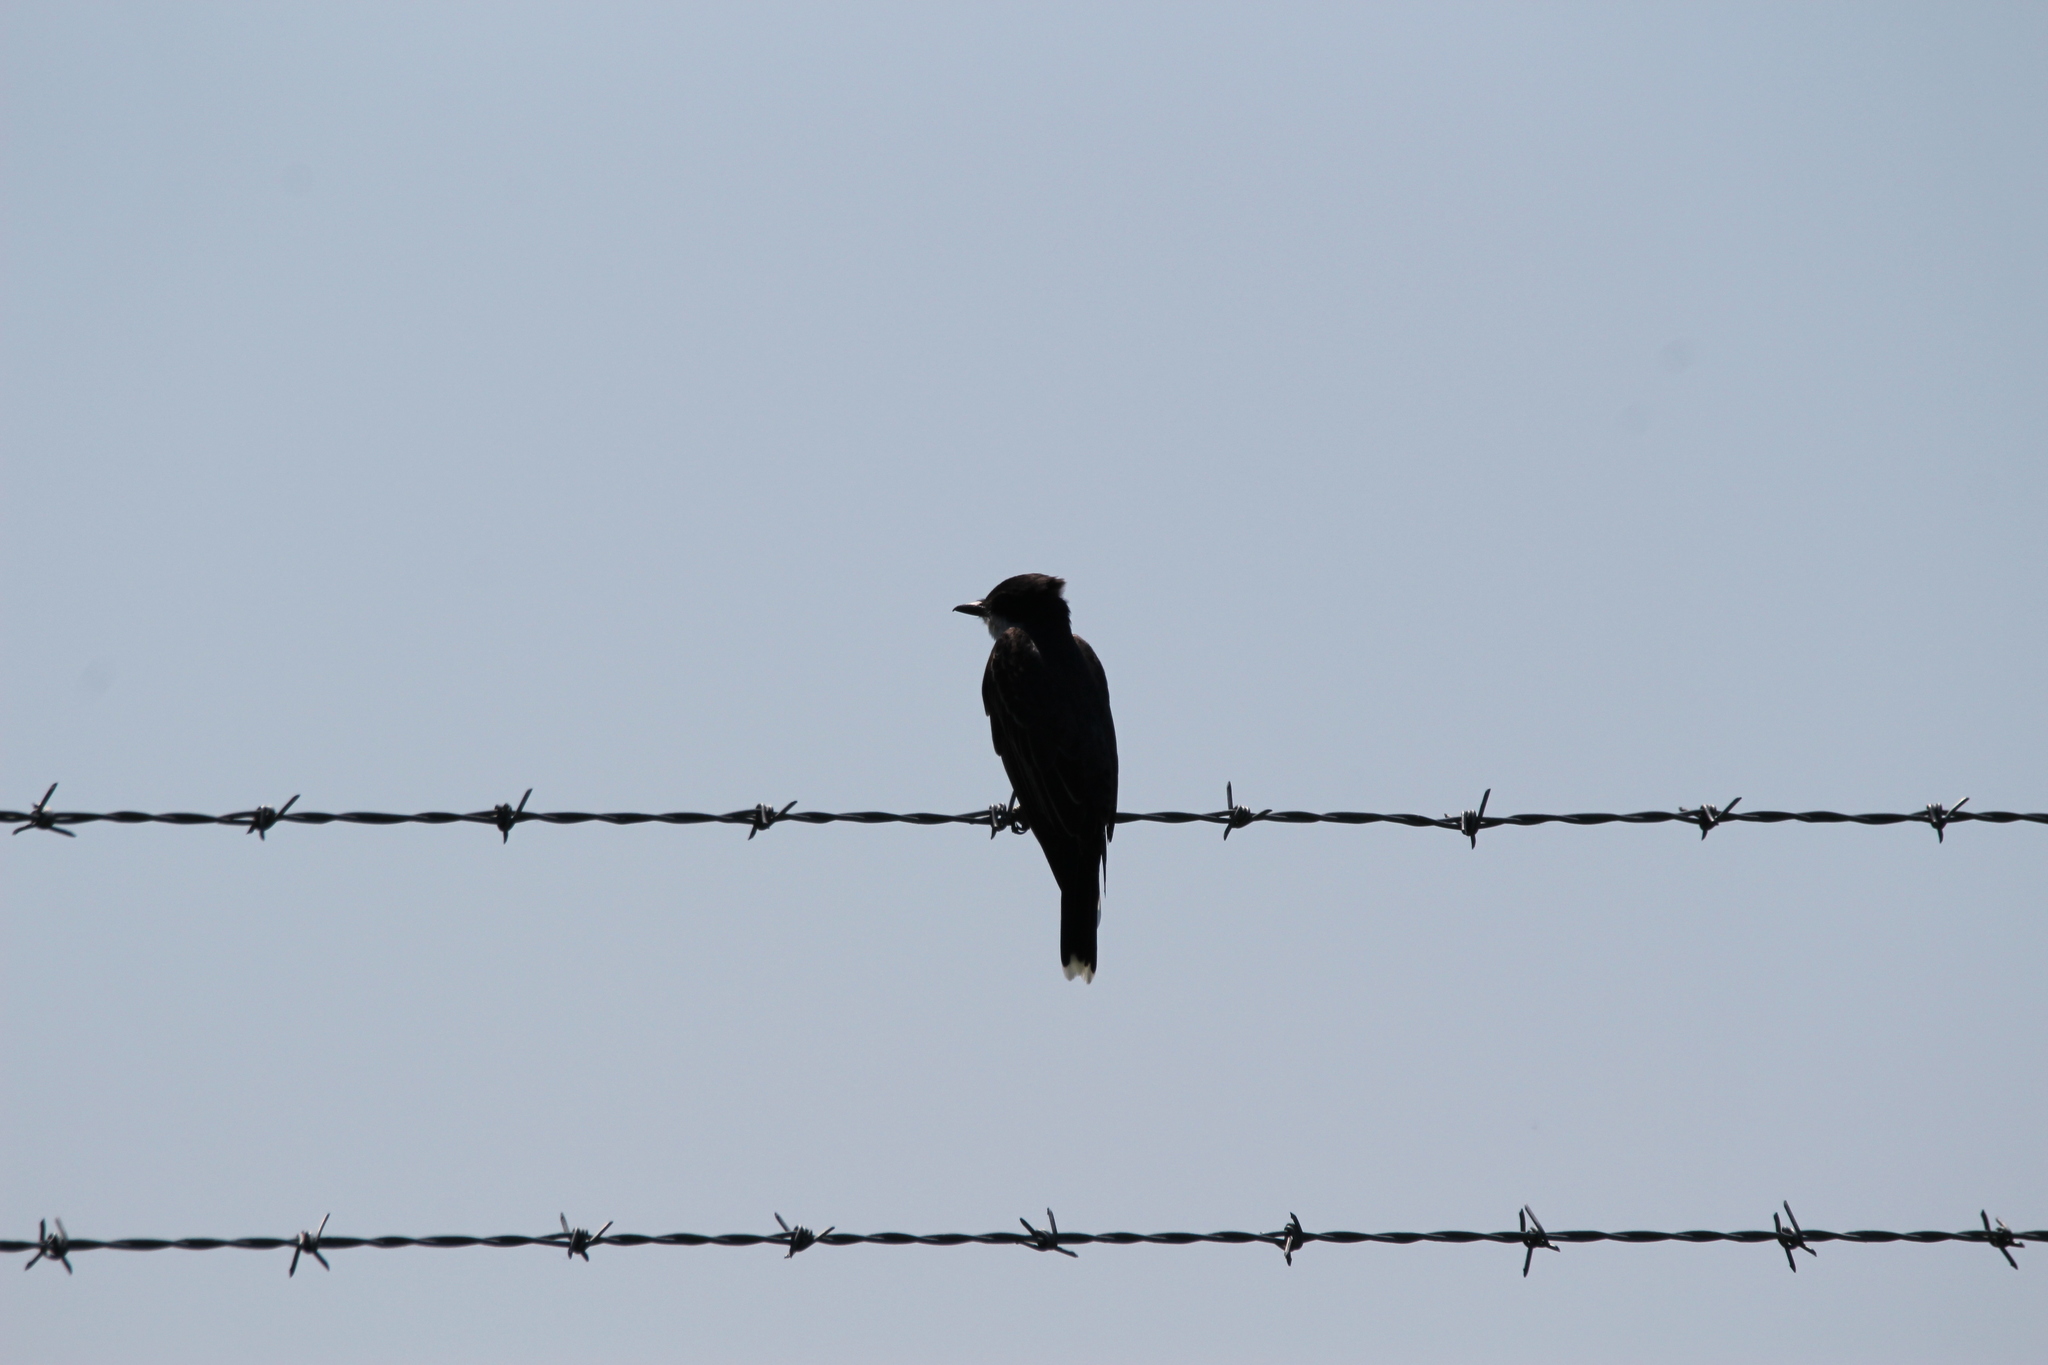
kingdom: Animalia
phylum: Chordata
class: Aves
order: Passeriformes
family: Tyrannidae
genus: Tyrannus
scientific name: Tyrannus tyrannus
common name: Eastern kingbird
